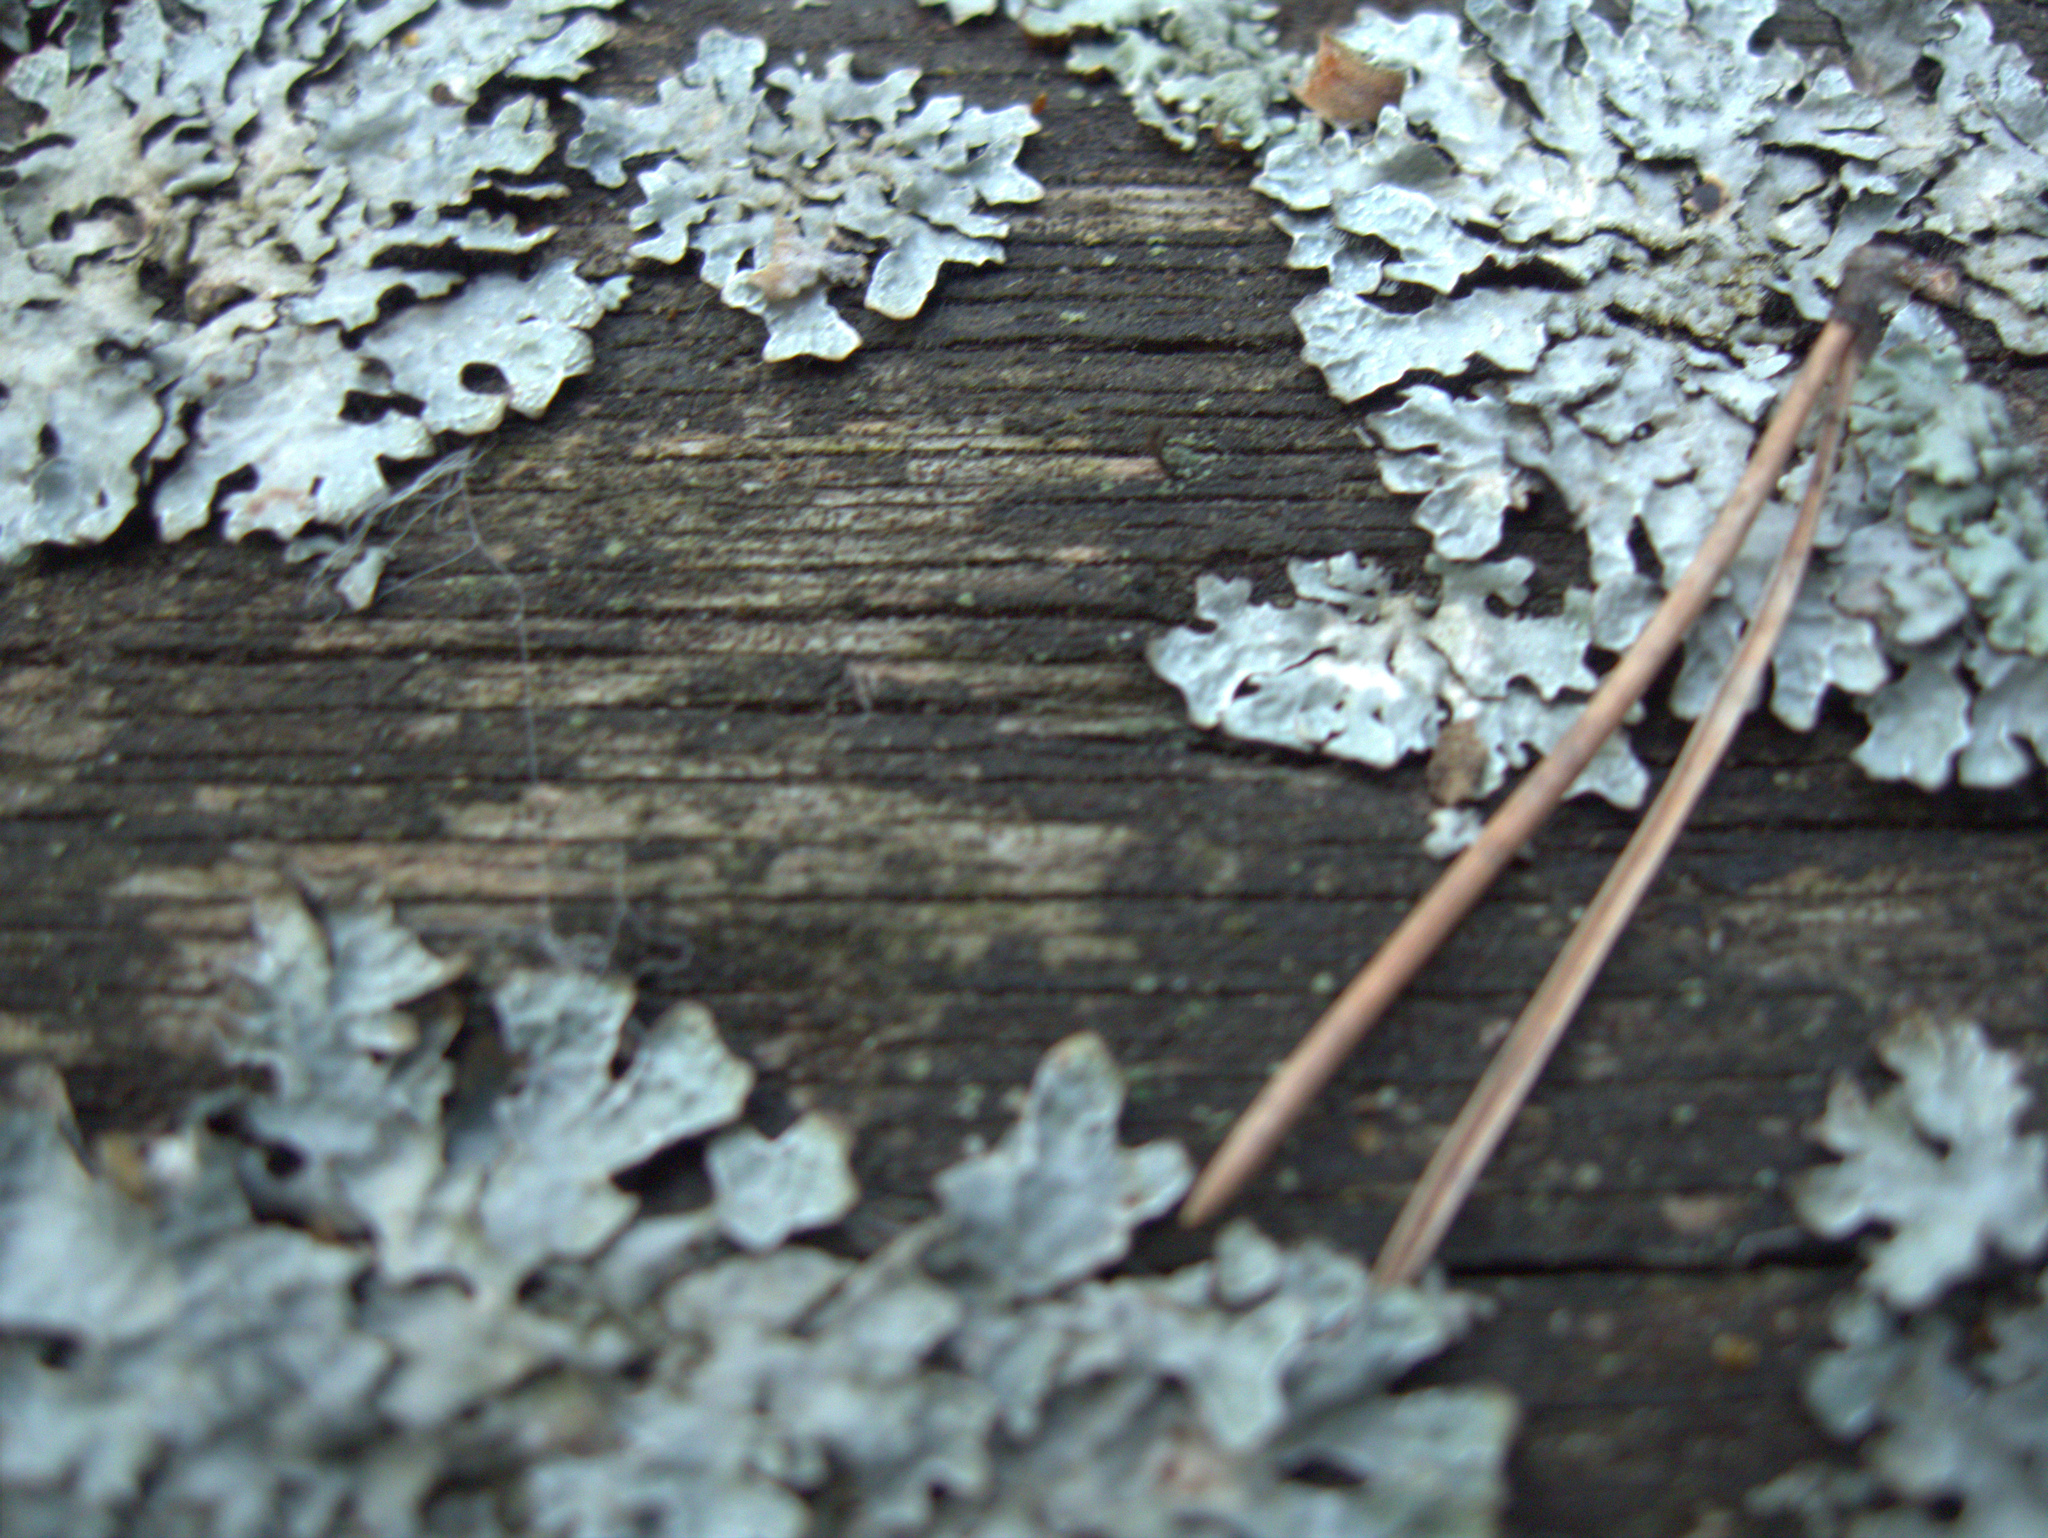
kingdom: Fungi
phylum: Ascomycota
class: Lecanoromycetes
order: Lecanorales
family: Parmeliaceae
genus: Parmelia
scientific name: Parmelia sulcata
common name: Netted shield lichen
